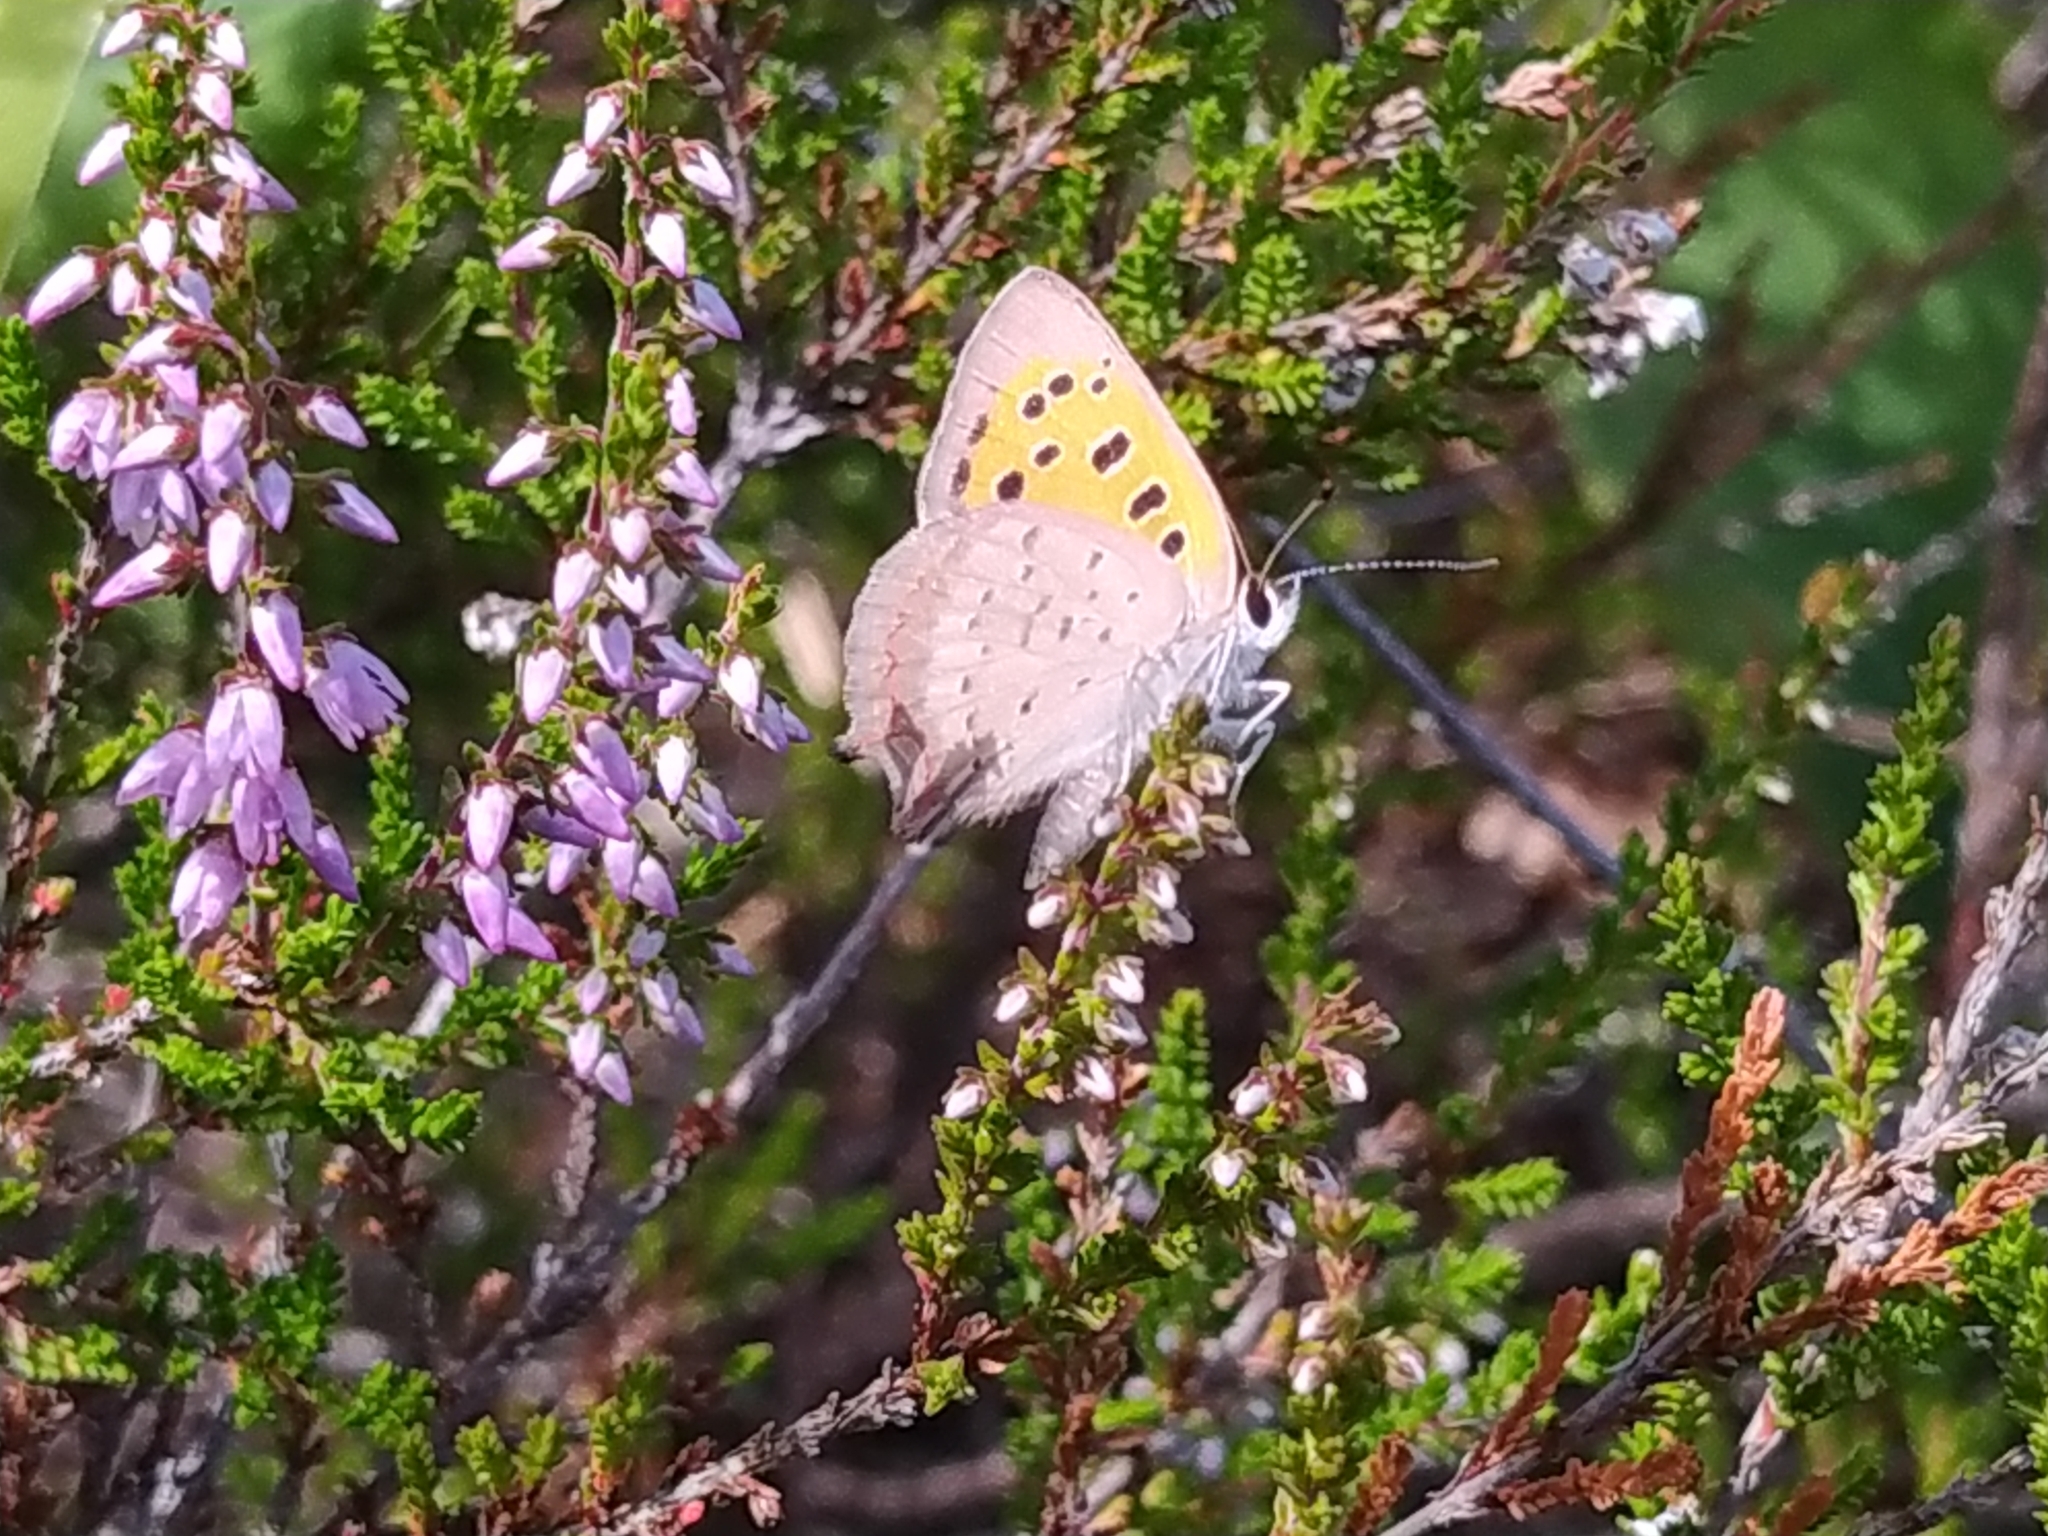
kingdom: Animalia
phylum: Arthropoda
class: Insecta
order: Lepidoptera
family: Lycaenidae
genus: Lycaena
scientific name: Lycaena phlaeas
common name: Small copper
